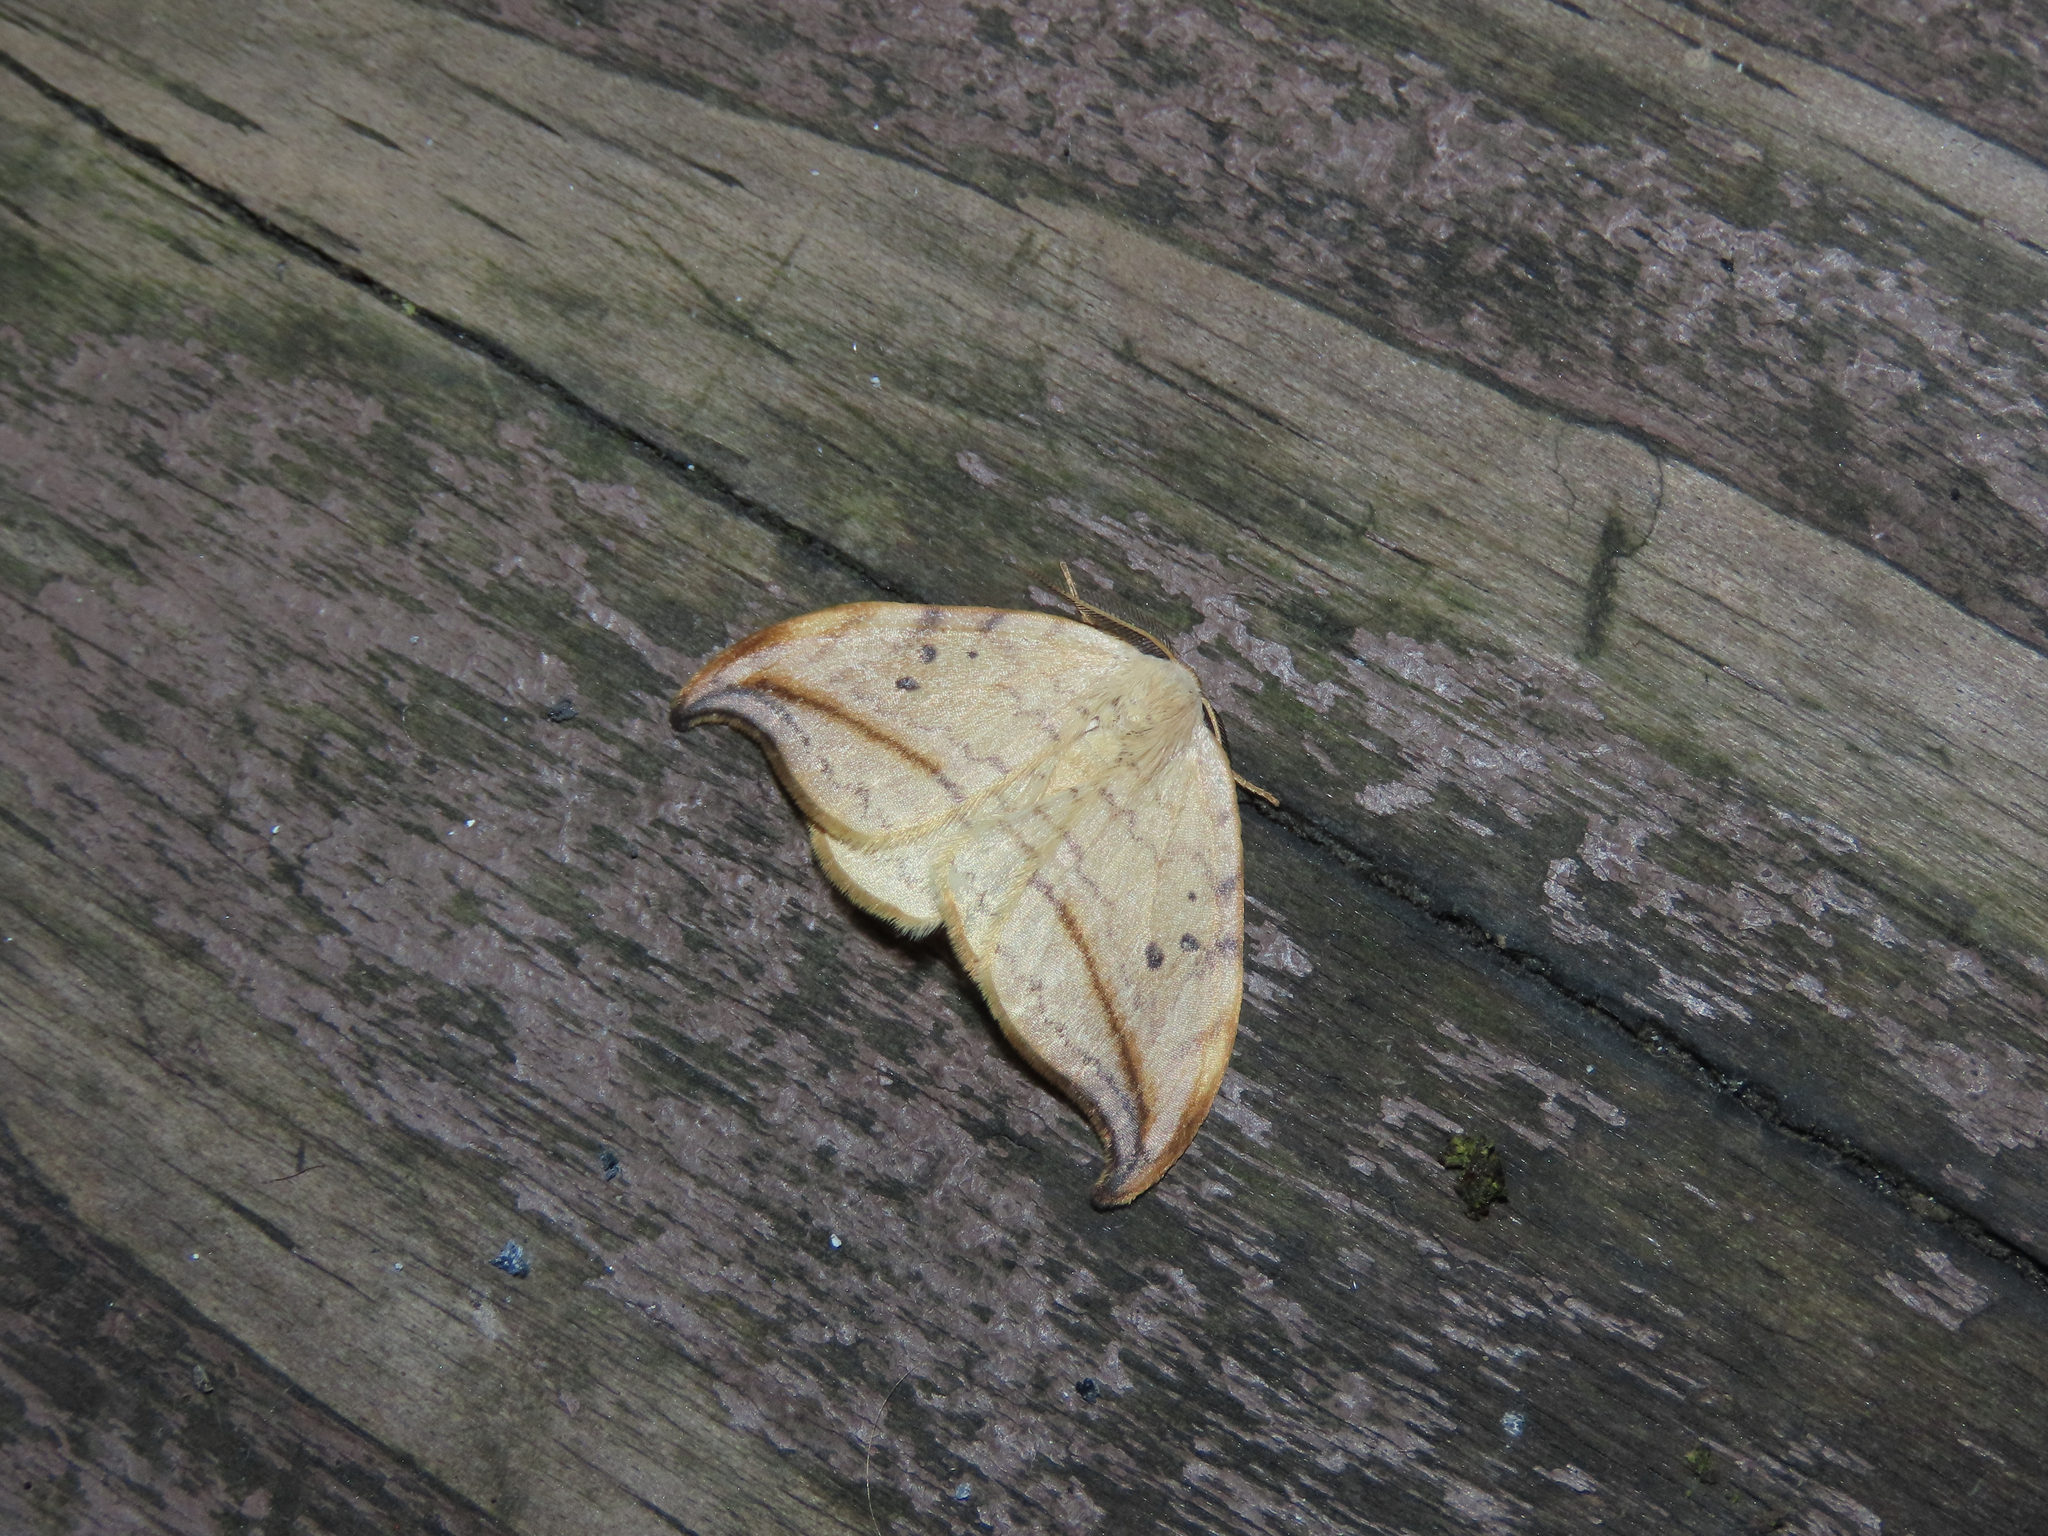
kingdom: Animalia
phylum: Arthropoda
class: Insecta
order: Lepidoptera
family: Drepanidae
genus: Drepana
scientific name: Drepana arcuata
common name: Arched hooktip moth
